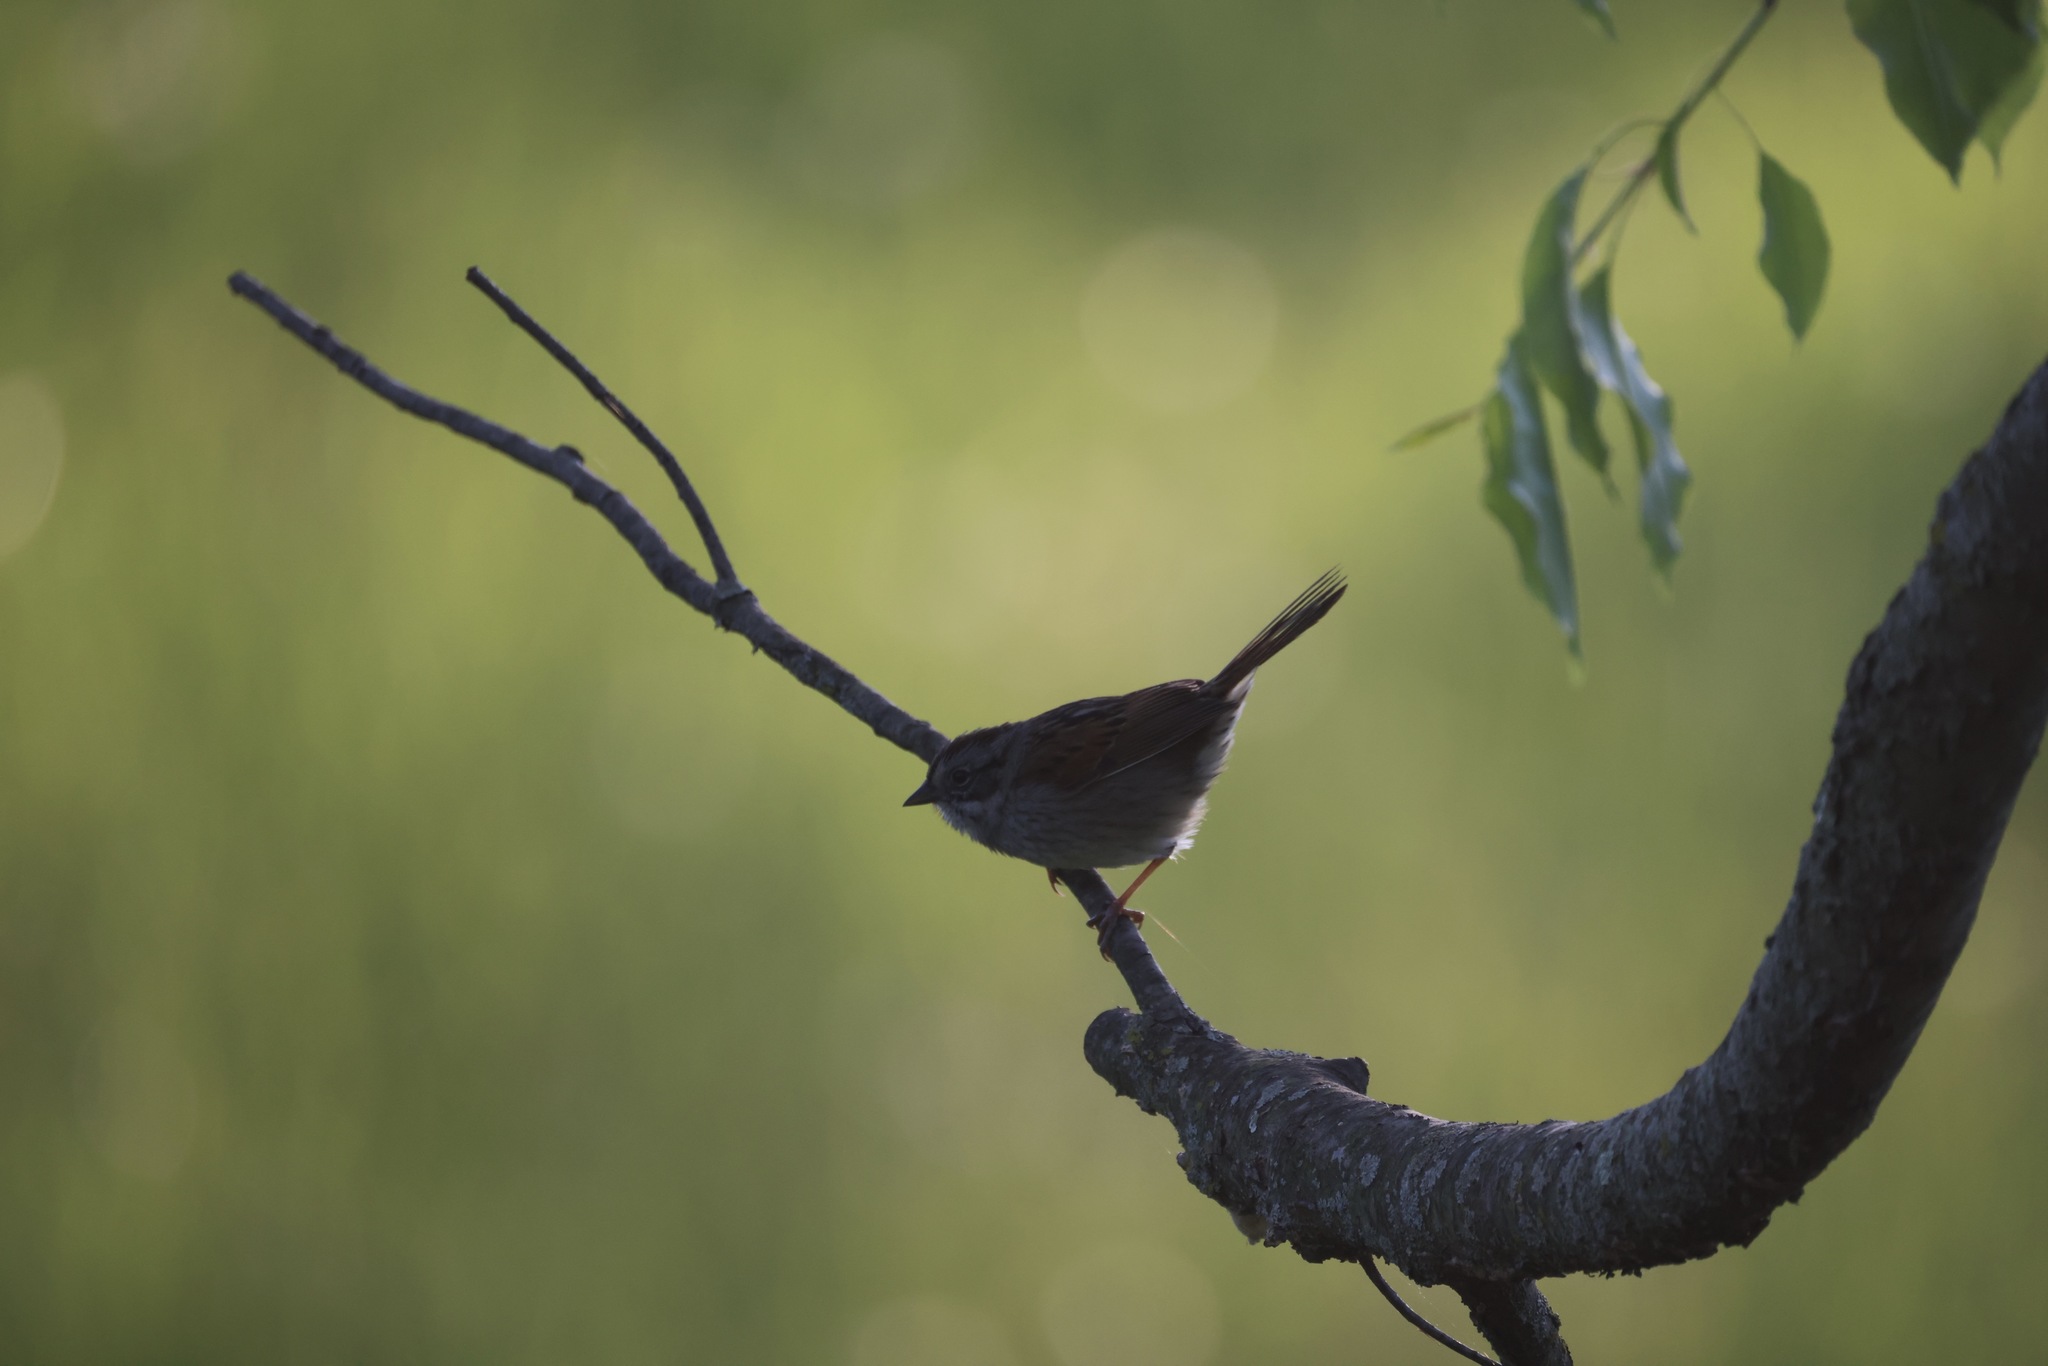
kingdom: Animalia
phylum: Chordata
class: Aves
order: Passeriformes
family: Passerellidae
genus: Melospiza
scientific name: Melospiza georgiana
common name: Swamp sparrow
